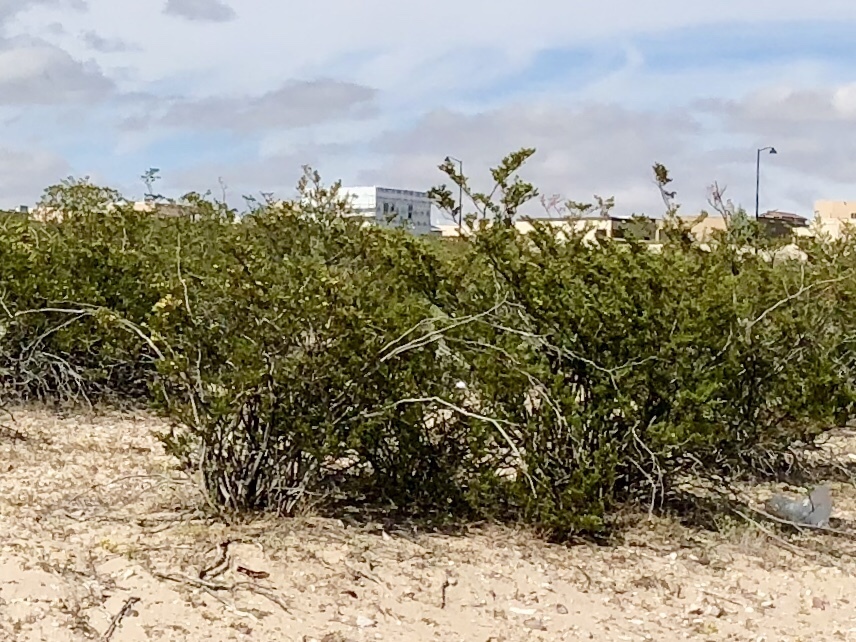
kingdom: Plantae
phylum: Tracheophyta
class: Magnoliopsida
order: Zygophyllales
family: Zygophyllaceae
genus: Larrea
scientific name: Larrea tridentata
